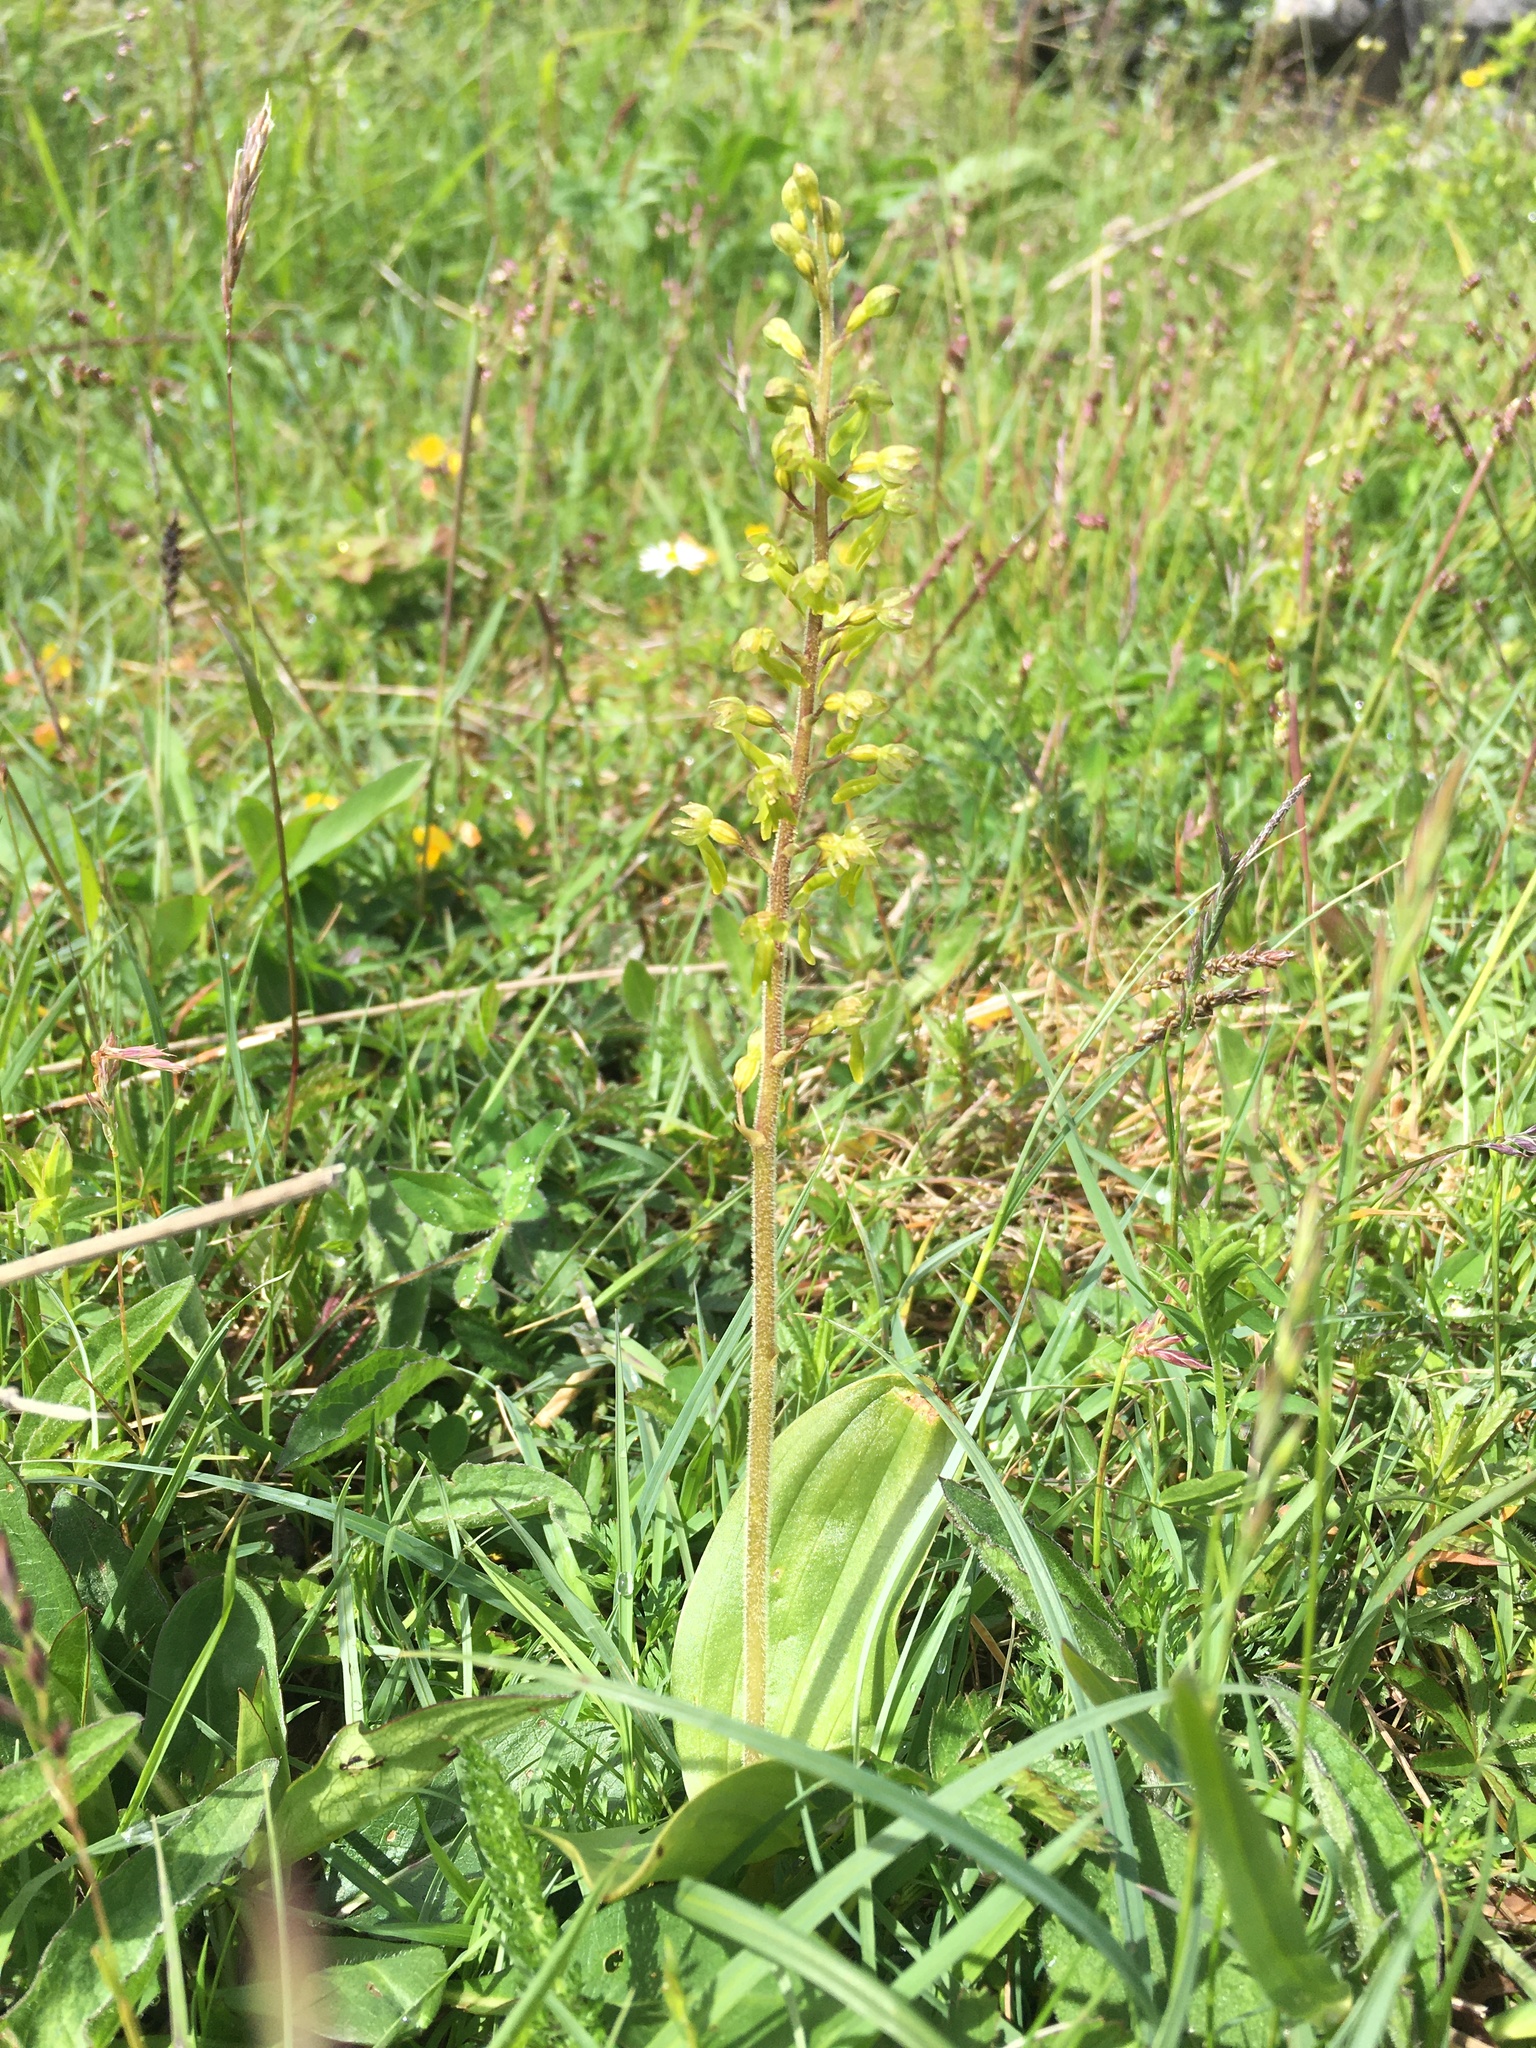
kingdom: Plantae
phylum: Tracheophyta
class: Liliopsida
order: Asparagales
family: Orchidaceae
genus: Neottia
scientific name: Neottia ovata
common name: Common twayblade
